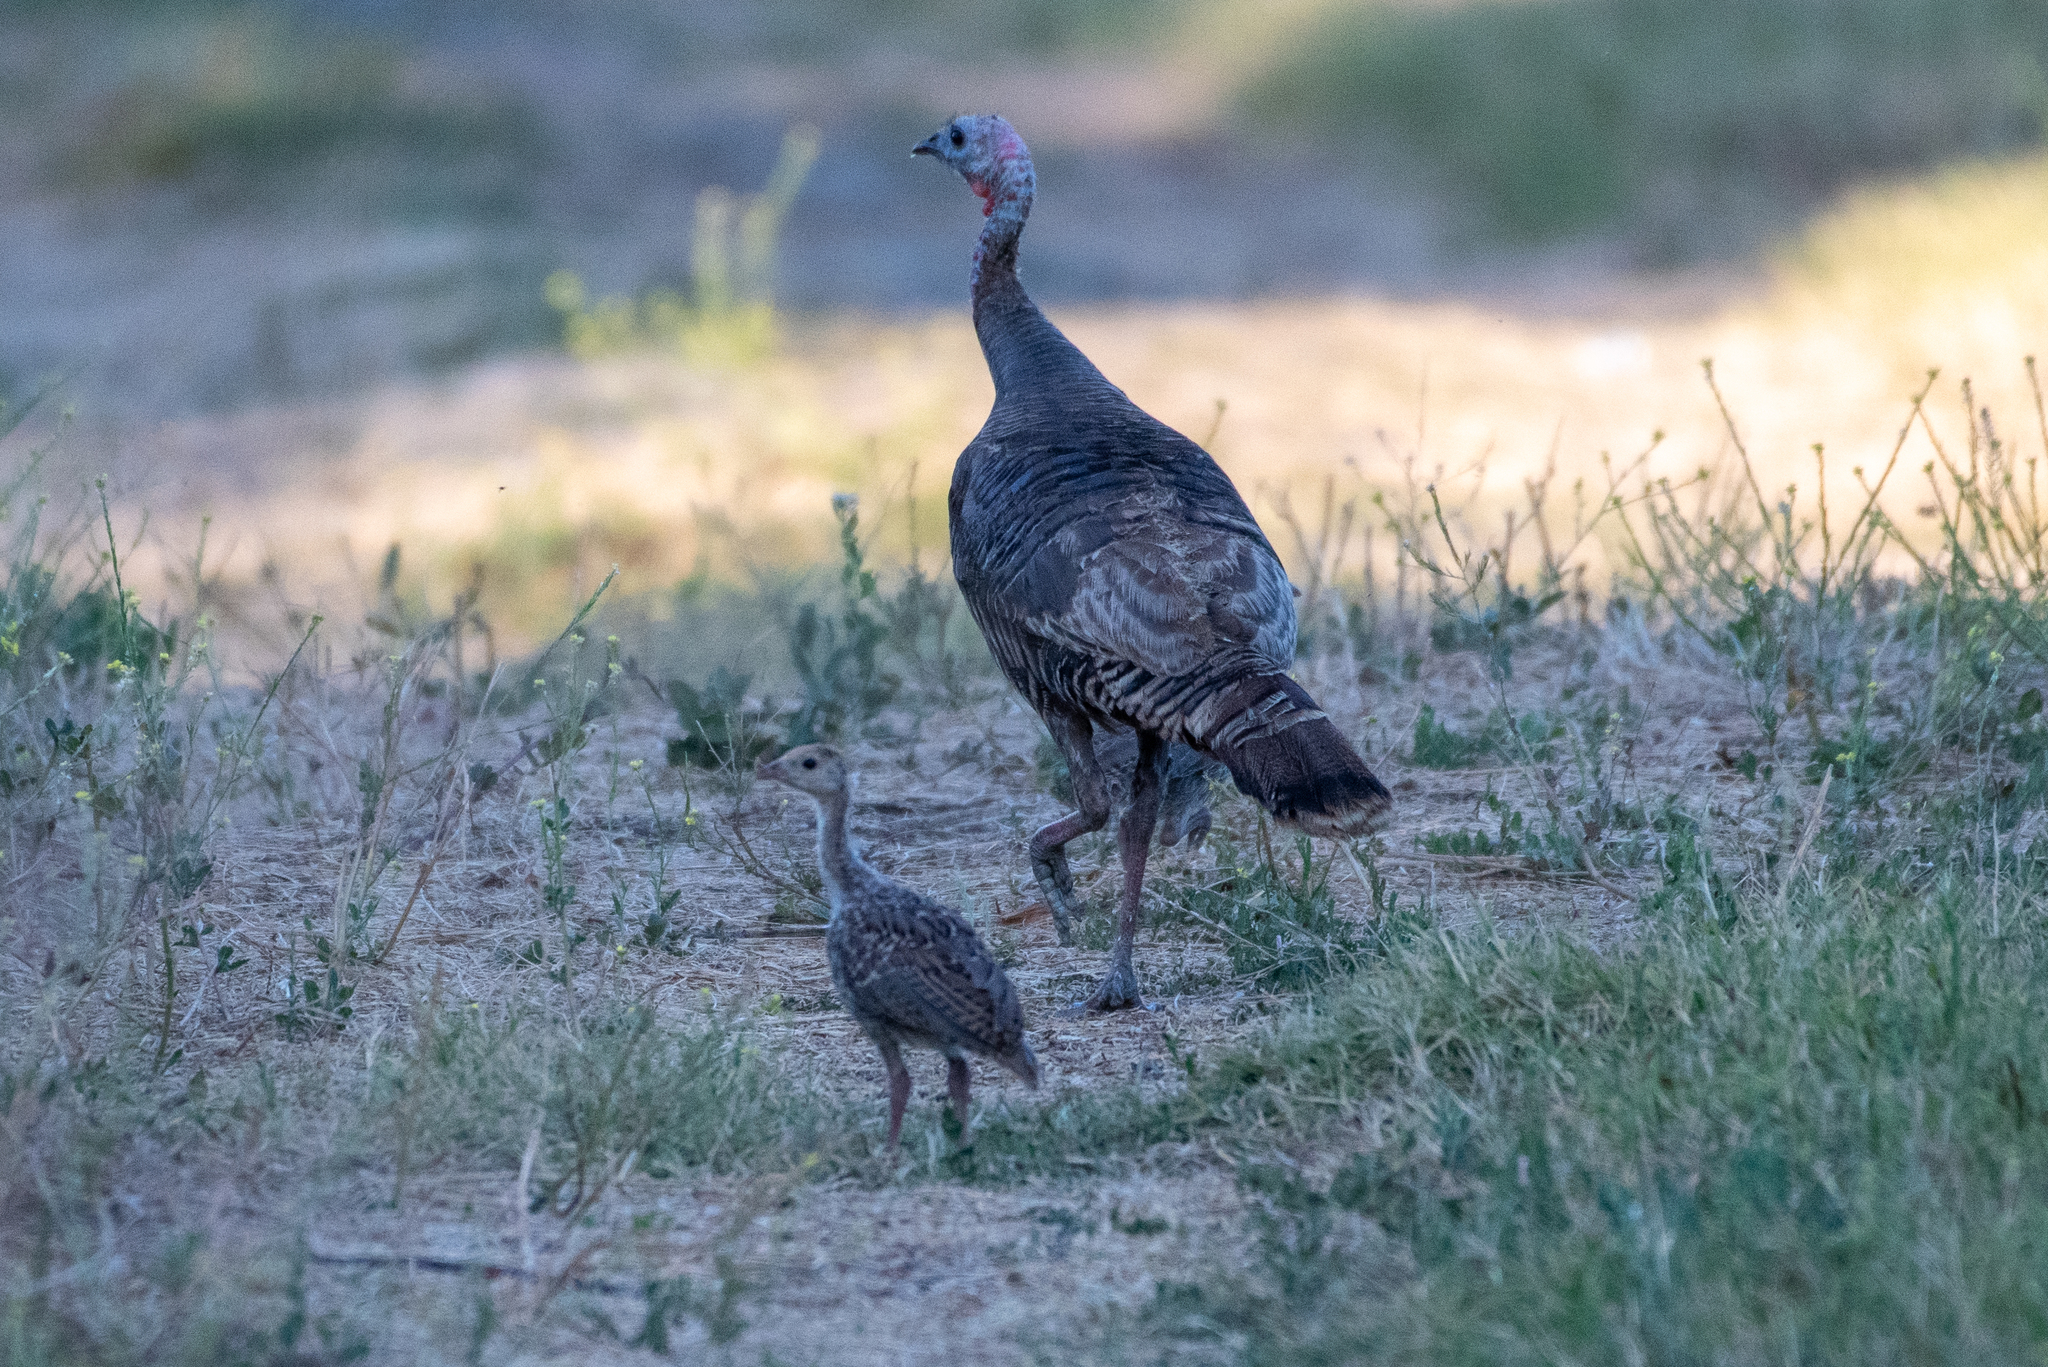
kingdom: Animalia
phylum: Chordata
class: Aves
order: Galliformes
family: Phasianidae
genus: Meleagris
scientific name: Meleagris gallopavo
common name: Wild turkey
